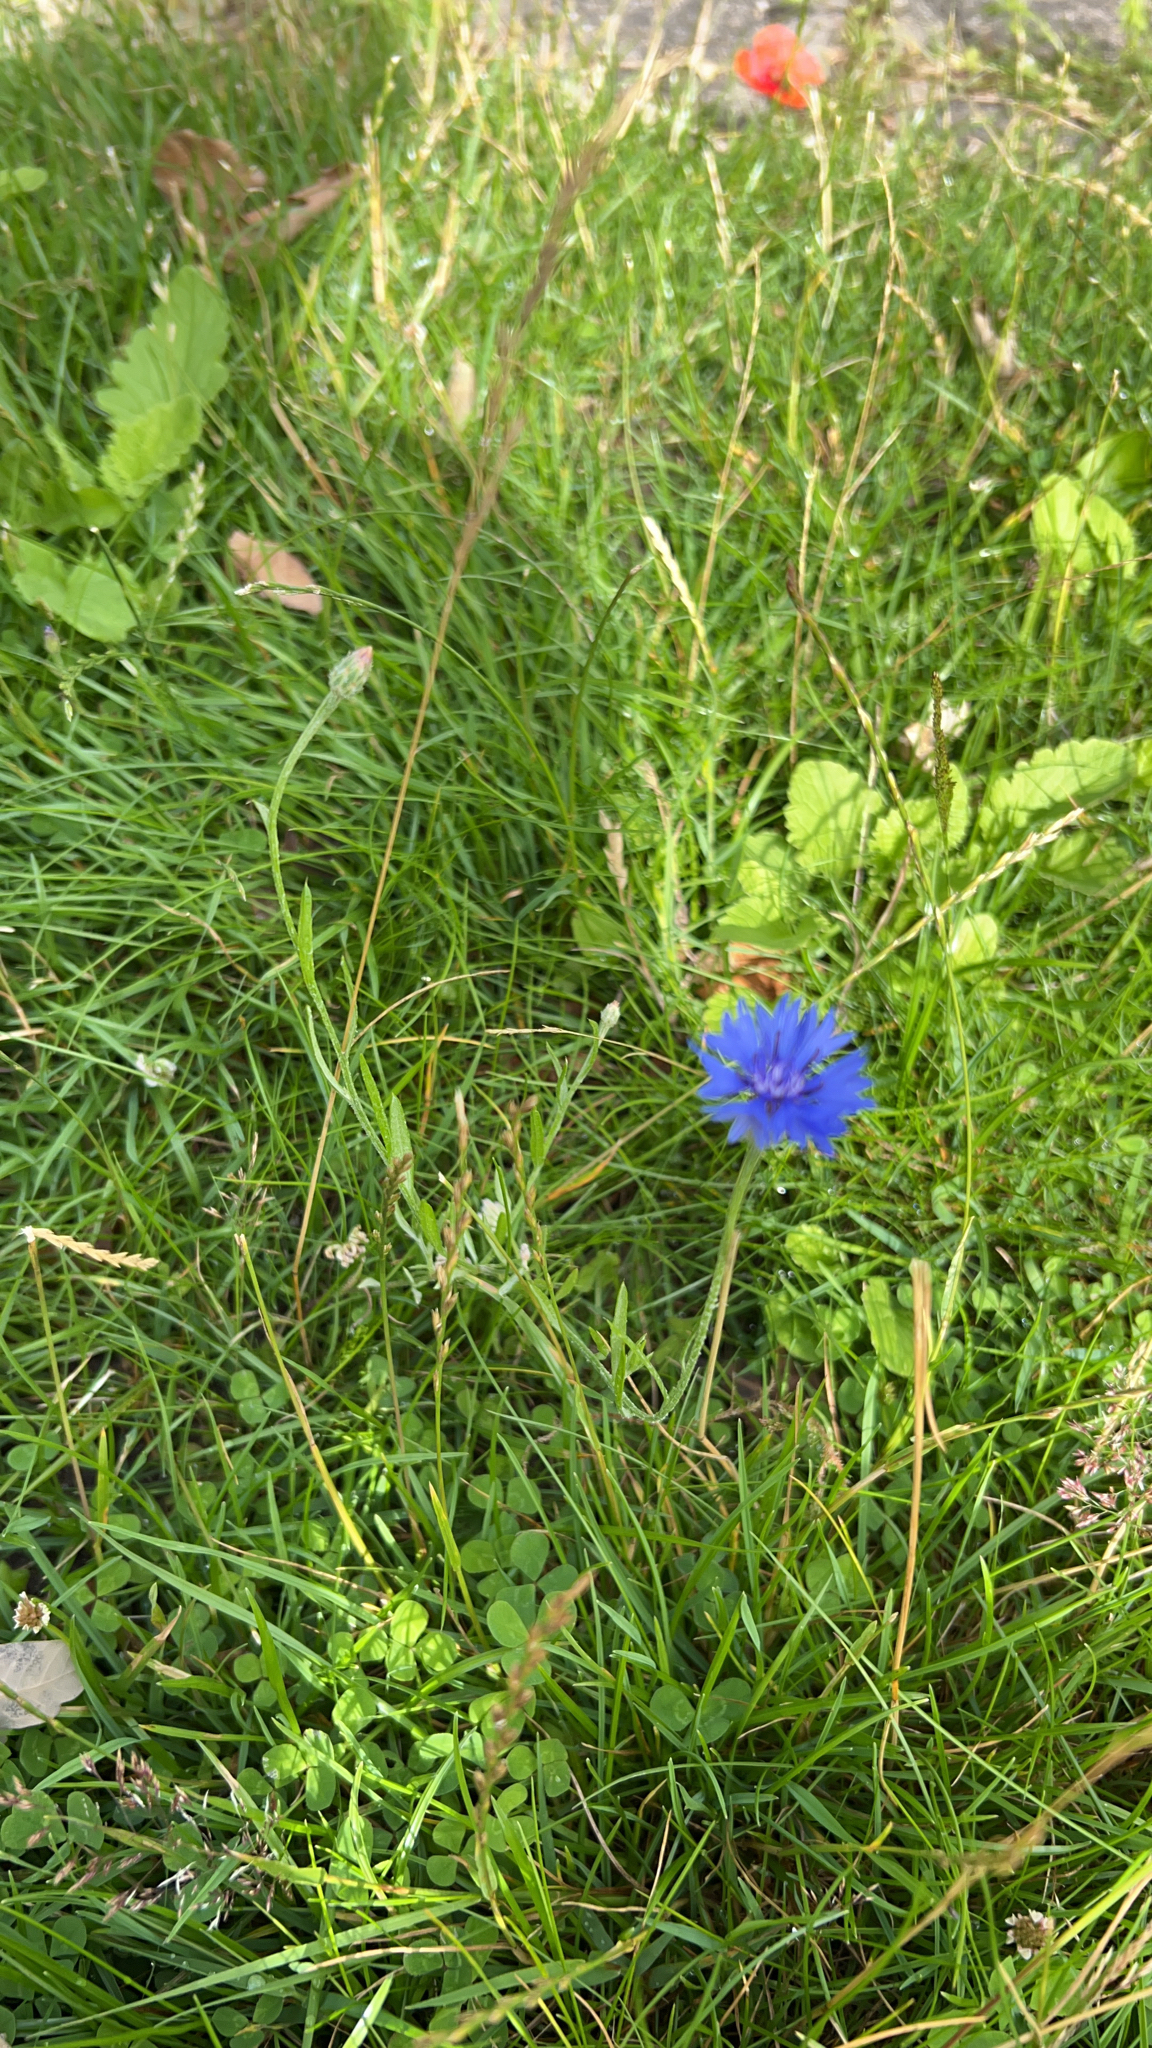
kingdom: Plantae
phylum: Tracheophyta
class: Magnoliopsida
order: Asterales
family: Asteraceae
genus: Centaurea
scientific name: Centaurea cyanus
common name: Cornflower
